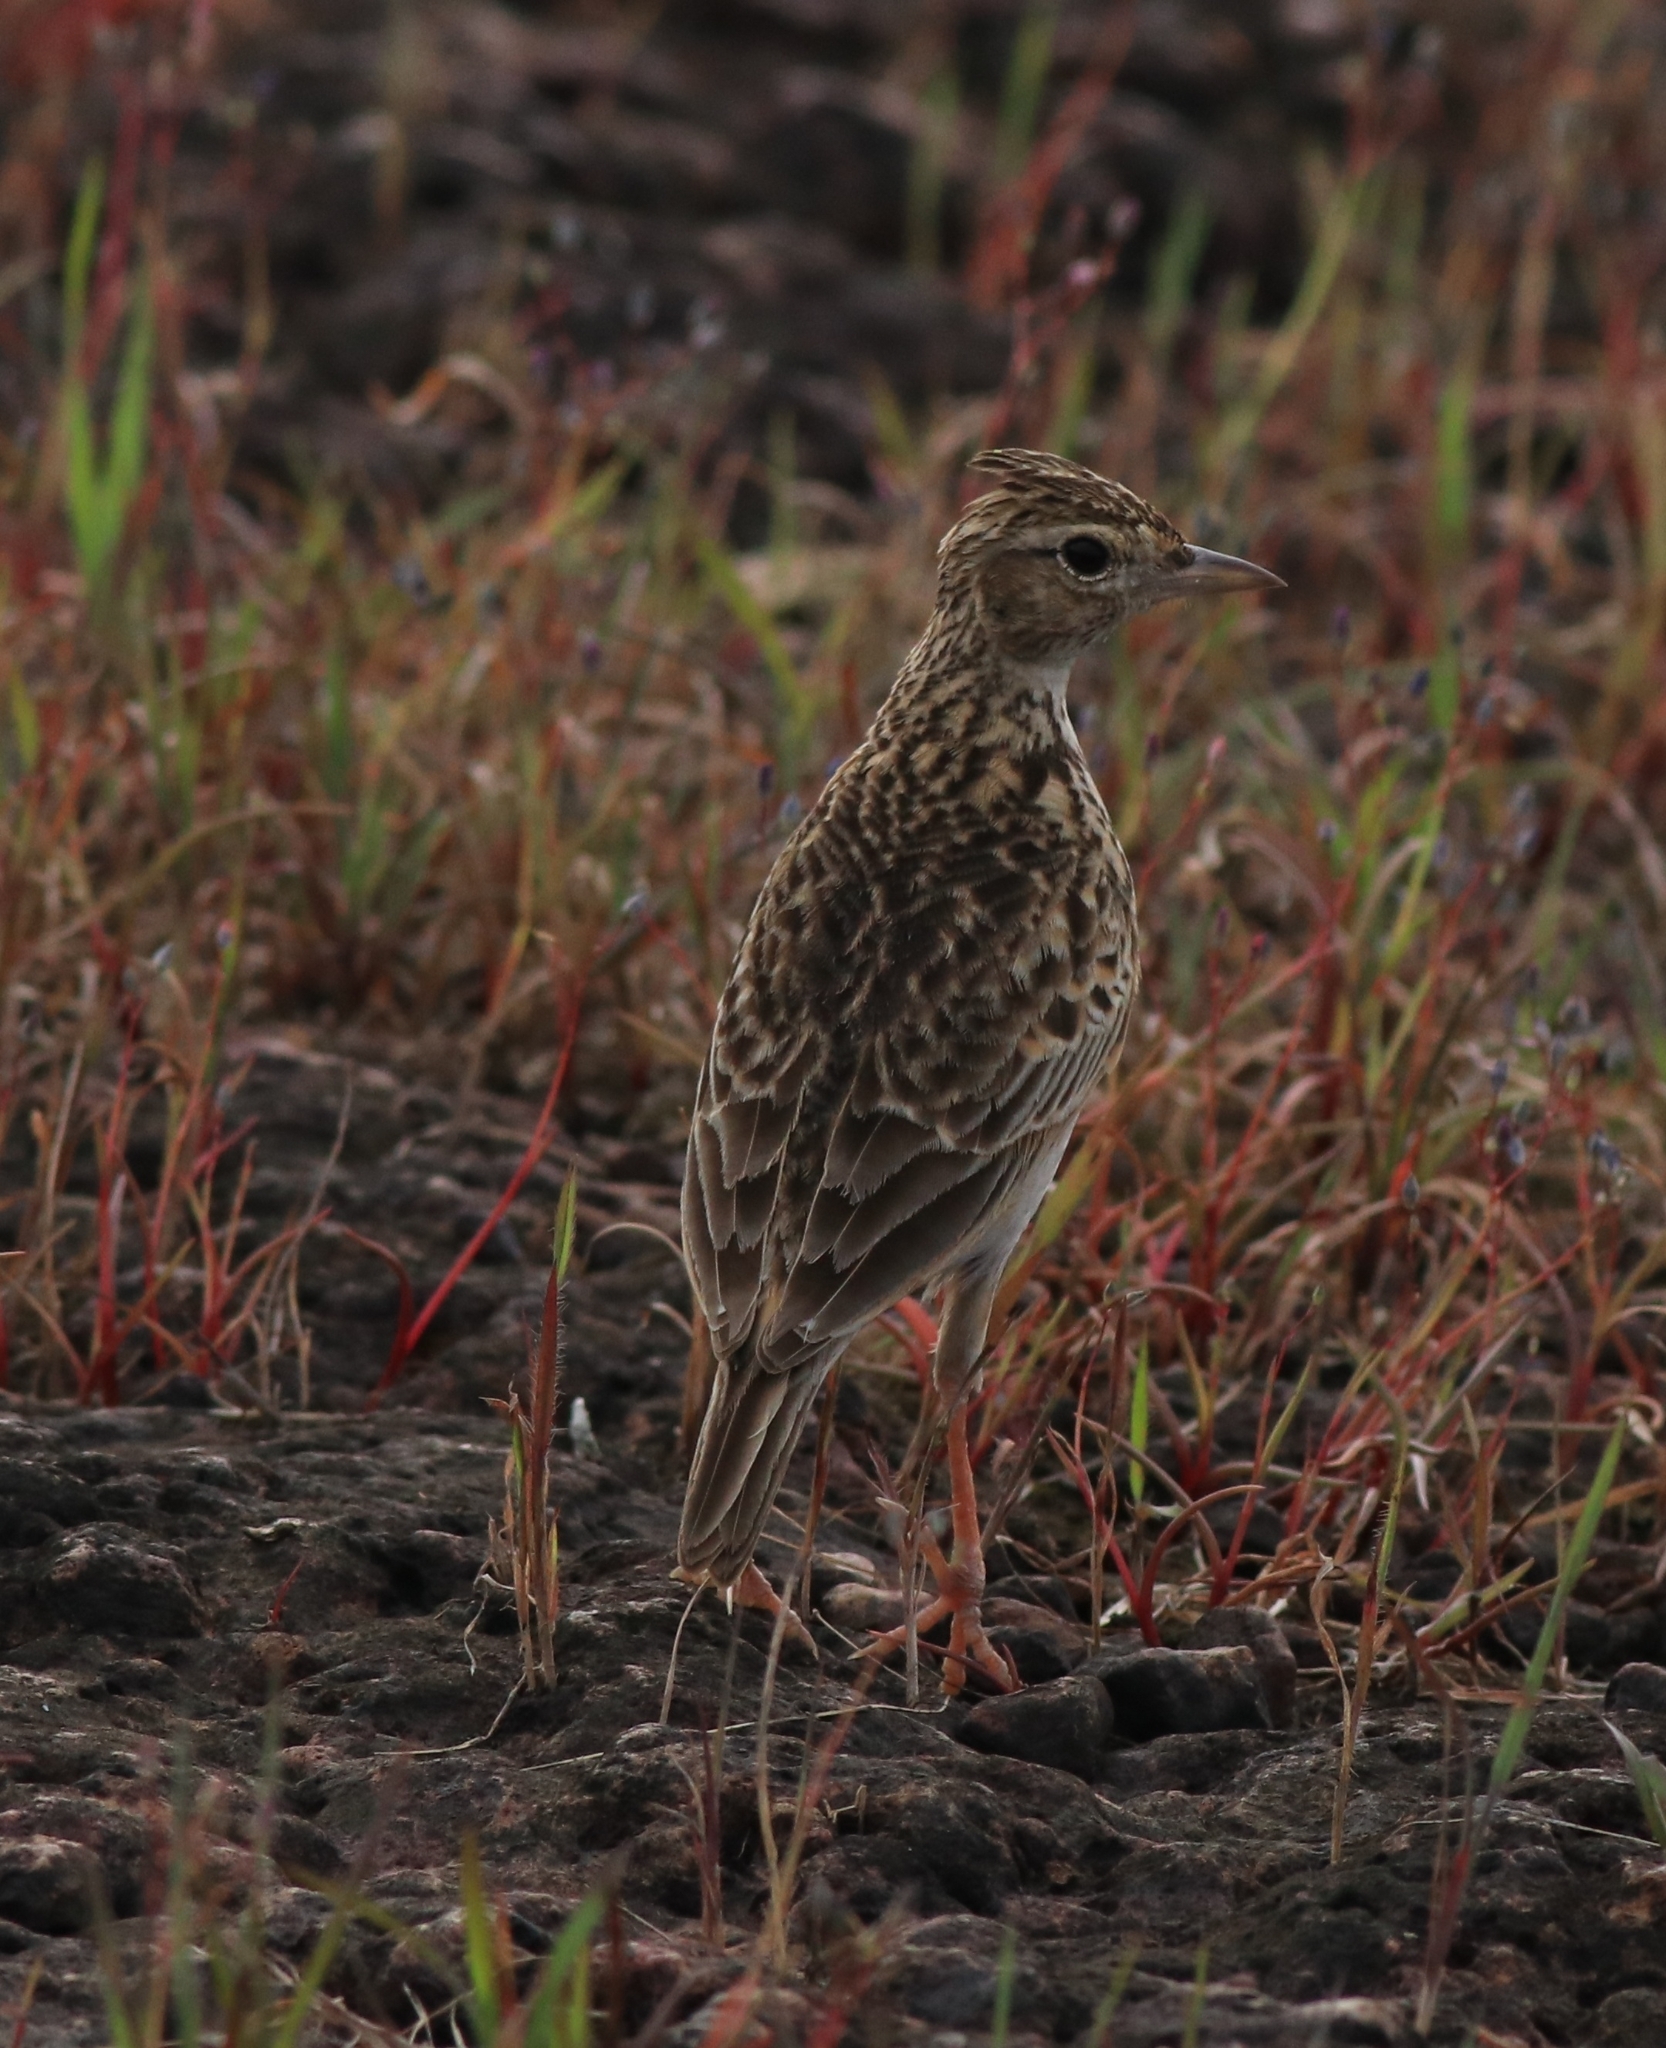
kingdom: Animalia
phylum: Chordata
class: Aves
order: Passeriformes
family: Alaudidae
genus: Alauda
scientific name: Alauda gulgula
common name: Oriental skylark
